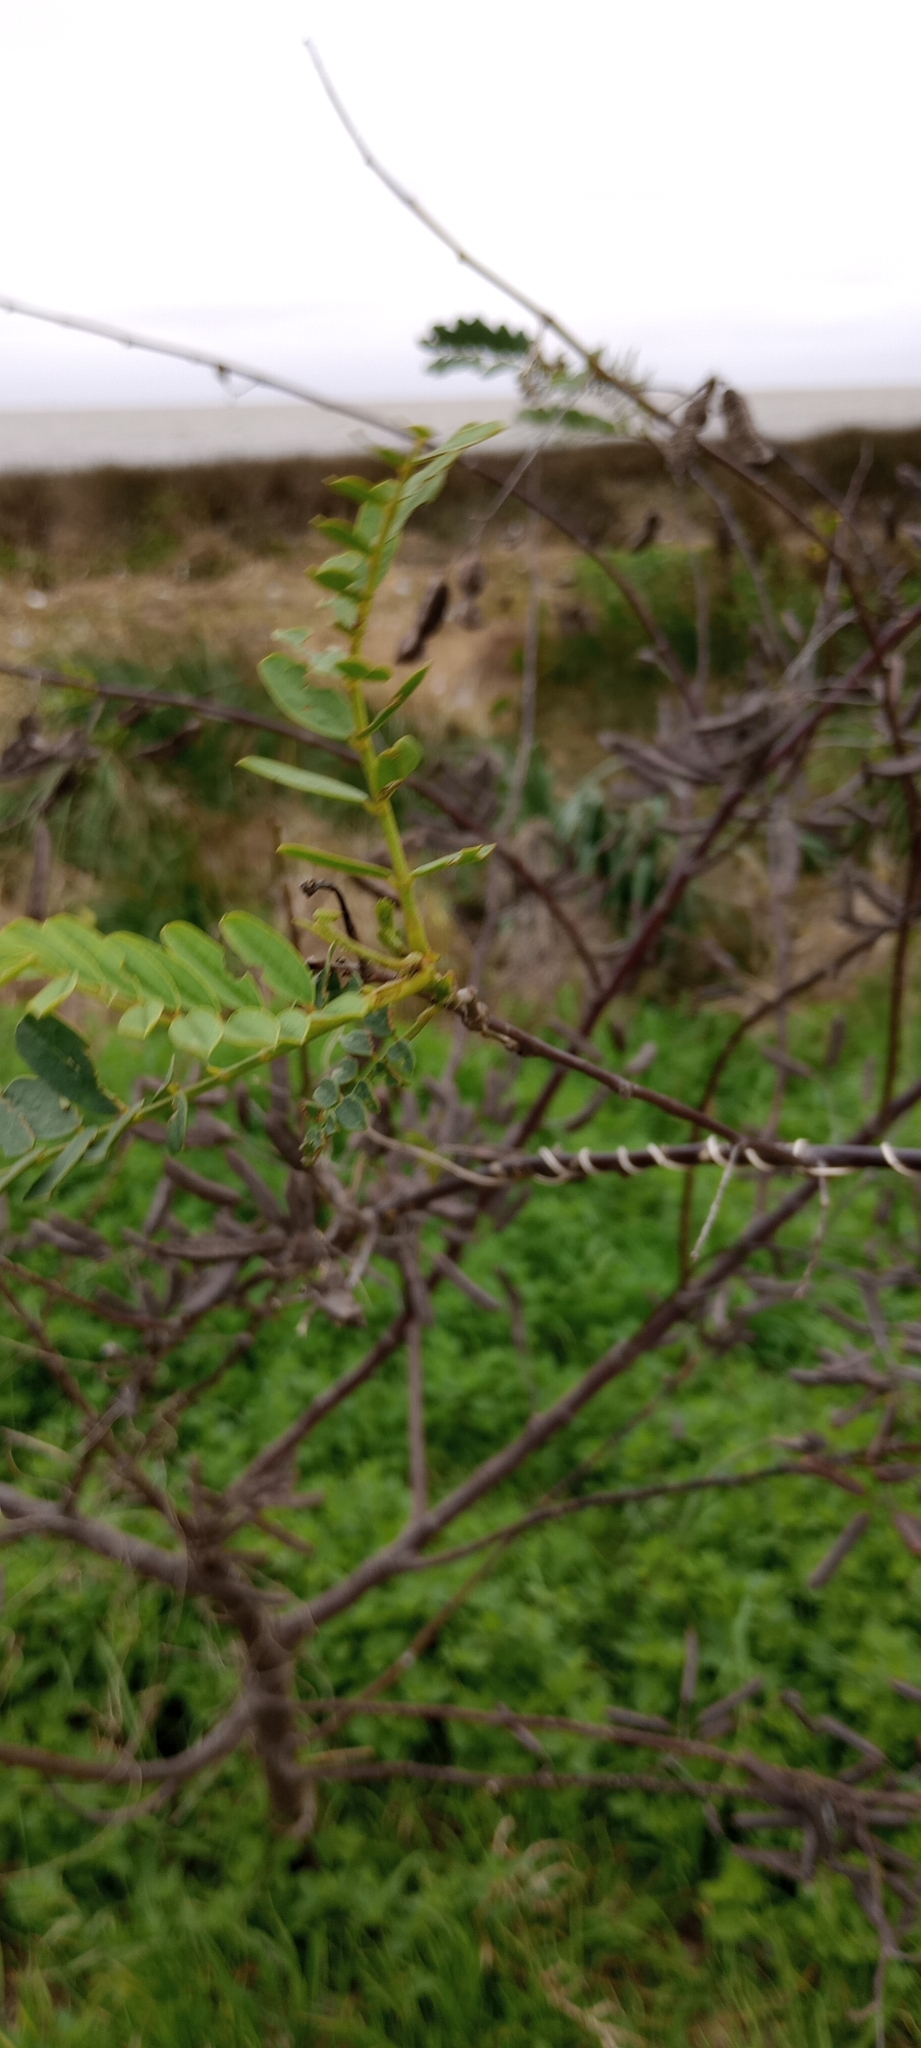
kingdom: Plantae
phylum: Tracheophyta
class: Magnoliopsida
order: Fabales
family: Fabaceae
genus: Sesbania
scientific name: Sesbania virgata
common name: Wand riverhemp
